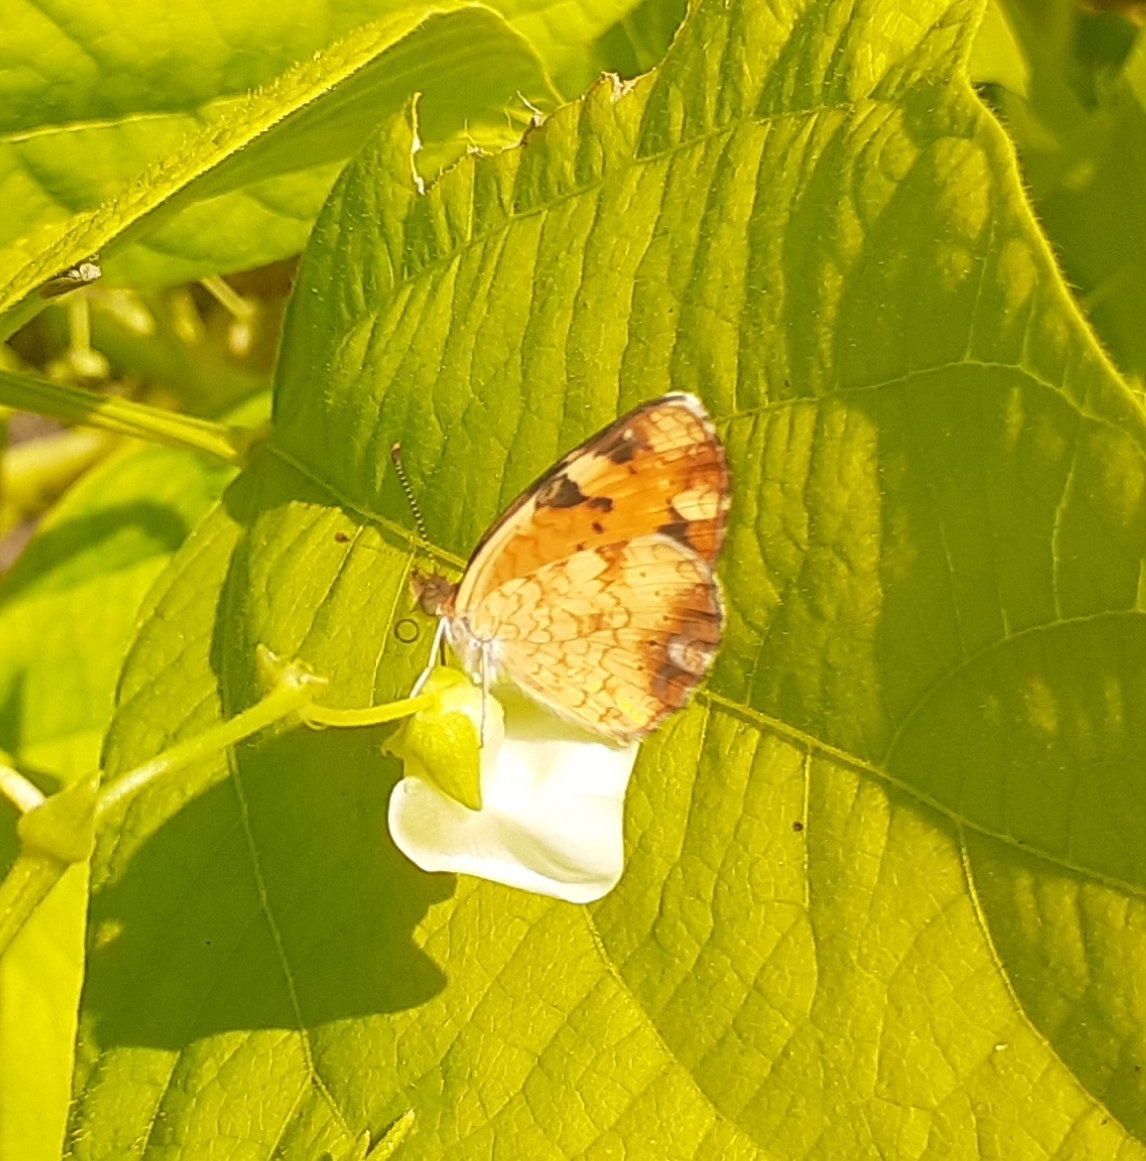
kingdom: Animalia
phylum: Arthropoda
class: Insecta
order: Lepidoptera
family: Nymphalidae
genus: Phyciodes
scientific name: Phyciodes tharos
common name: Pearl crescent
